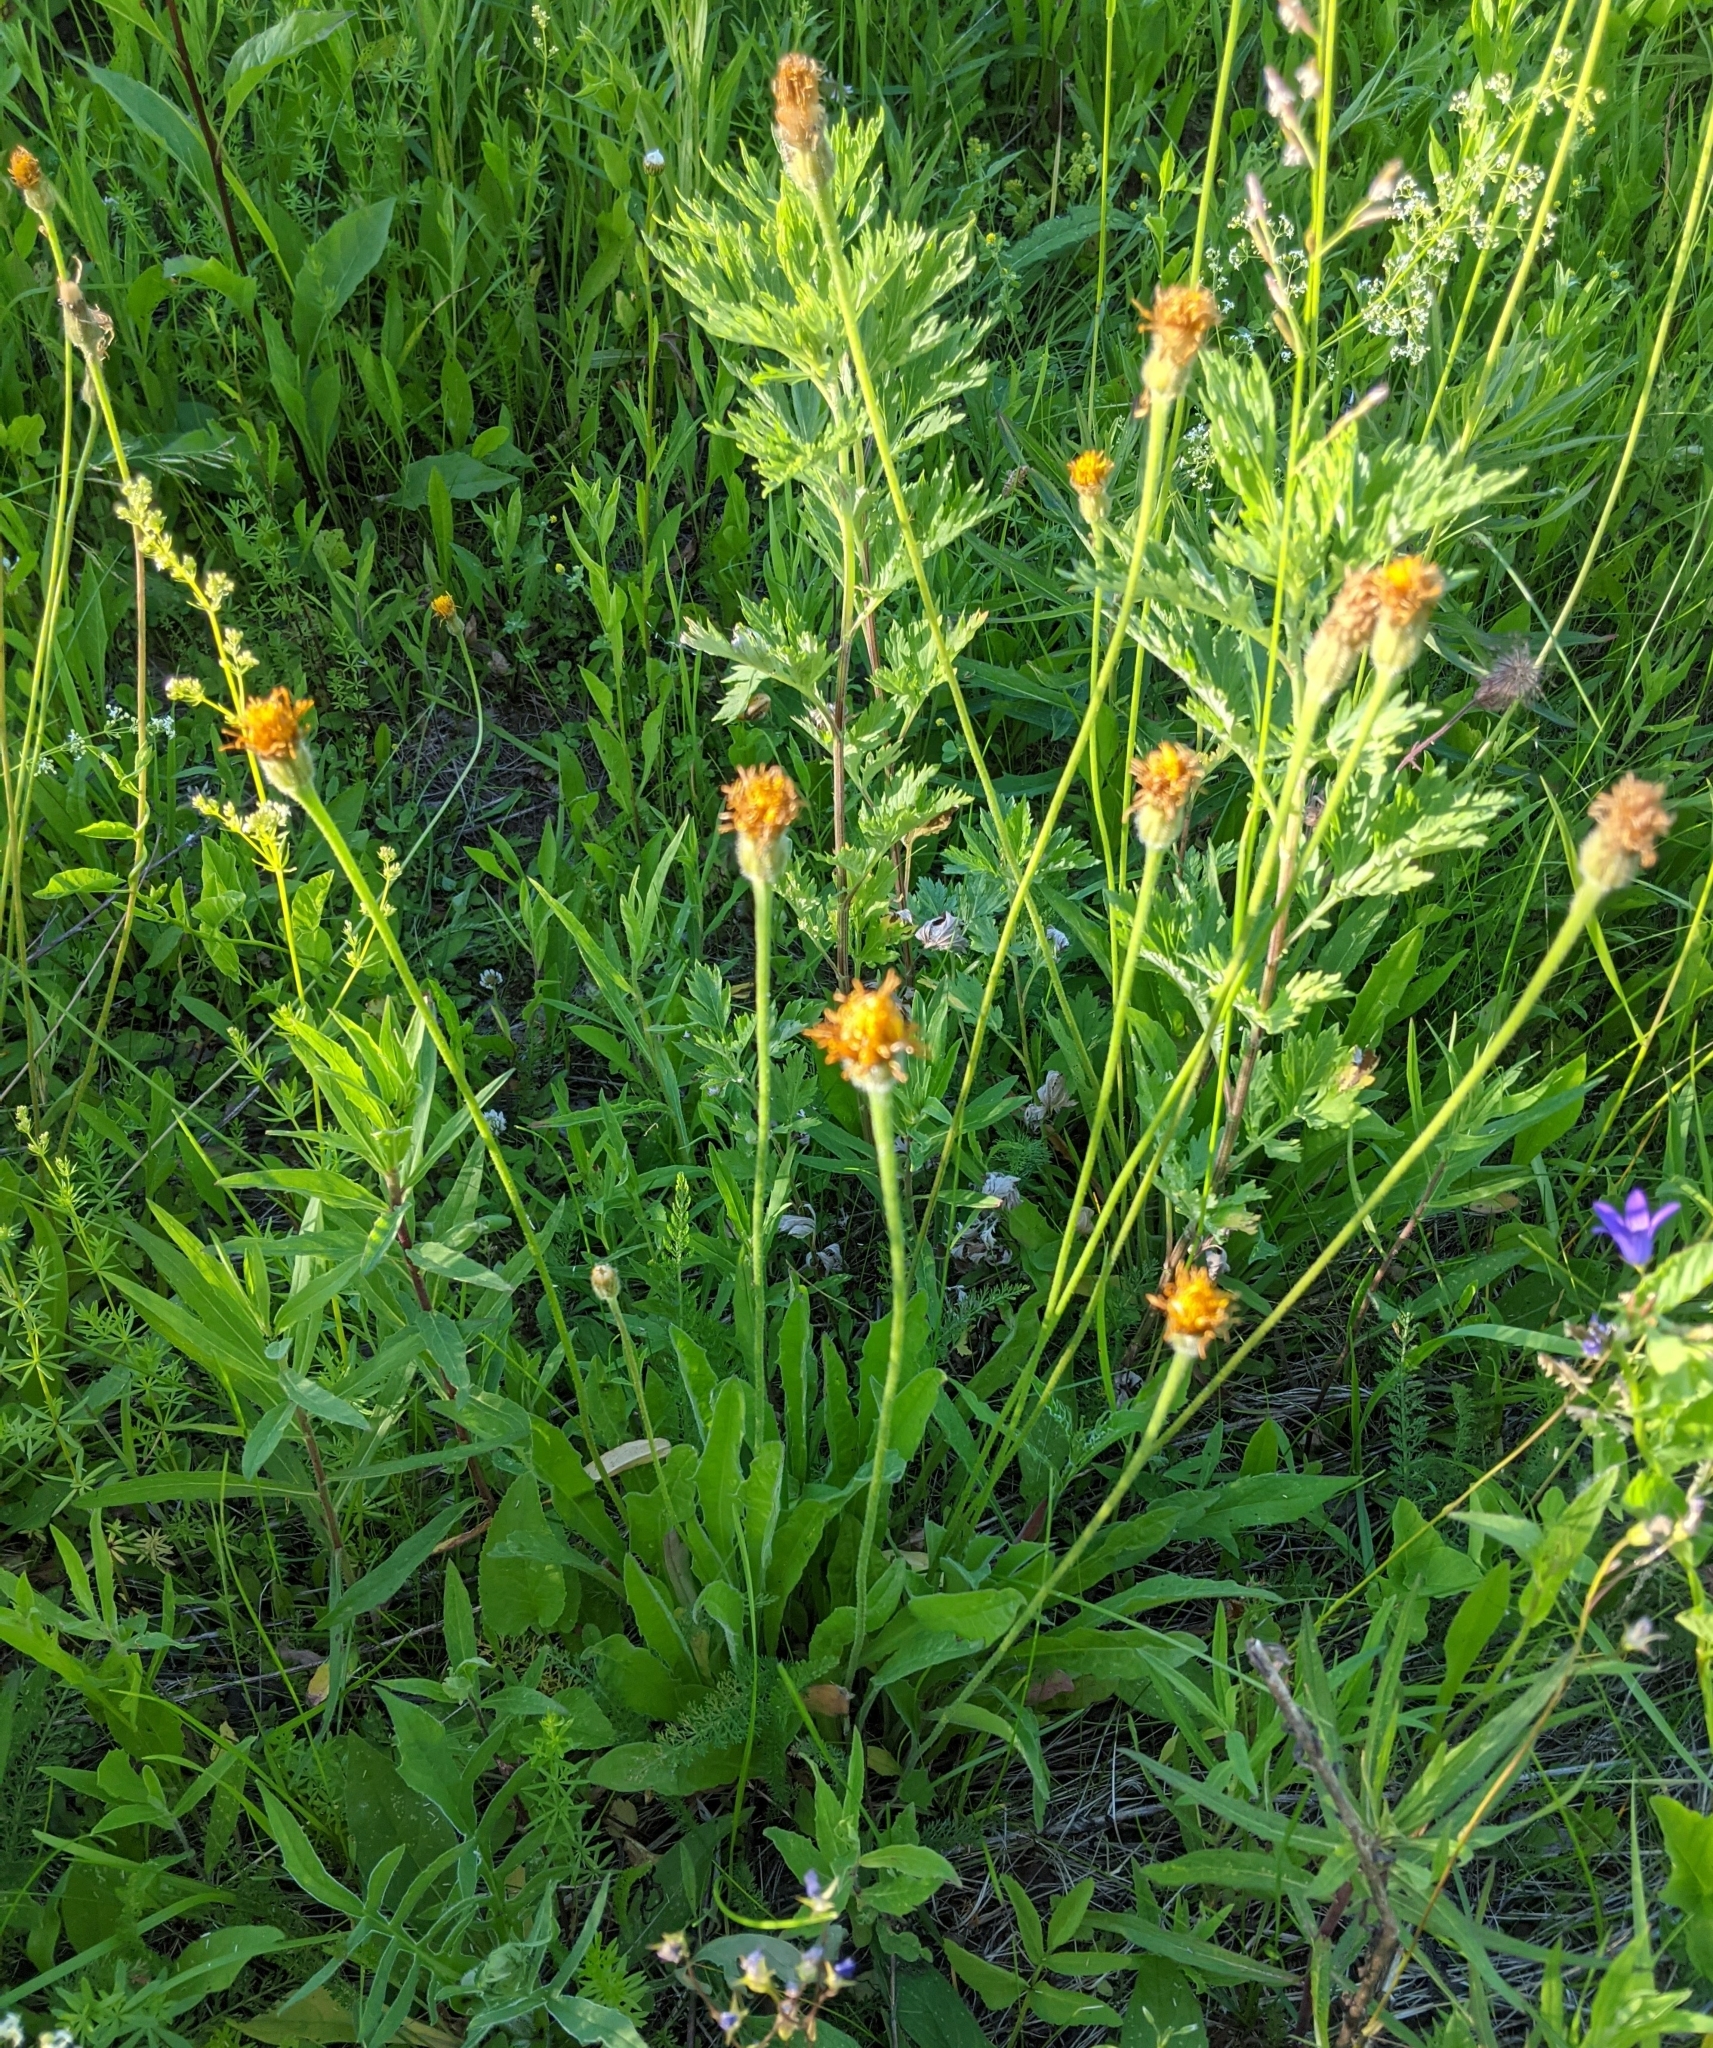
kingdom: Plantae
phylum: Tracheophyta
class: Magnoliopsida
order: Asterales
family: Asteraceae
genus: Leontodon
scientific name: Leontodon hispidus
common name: Rough hawkbit
